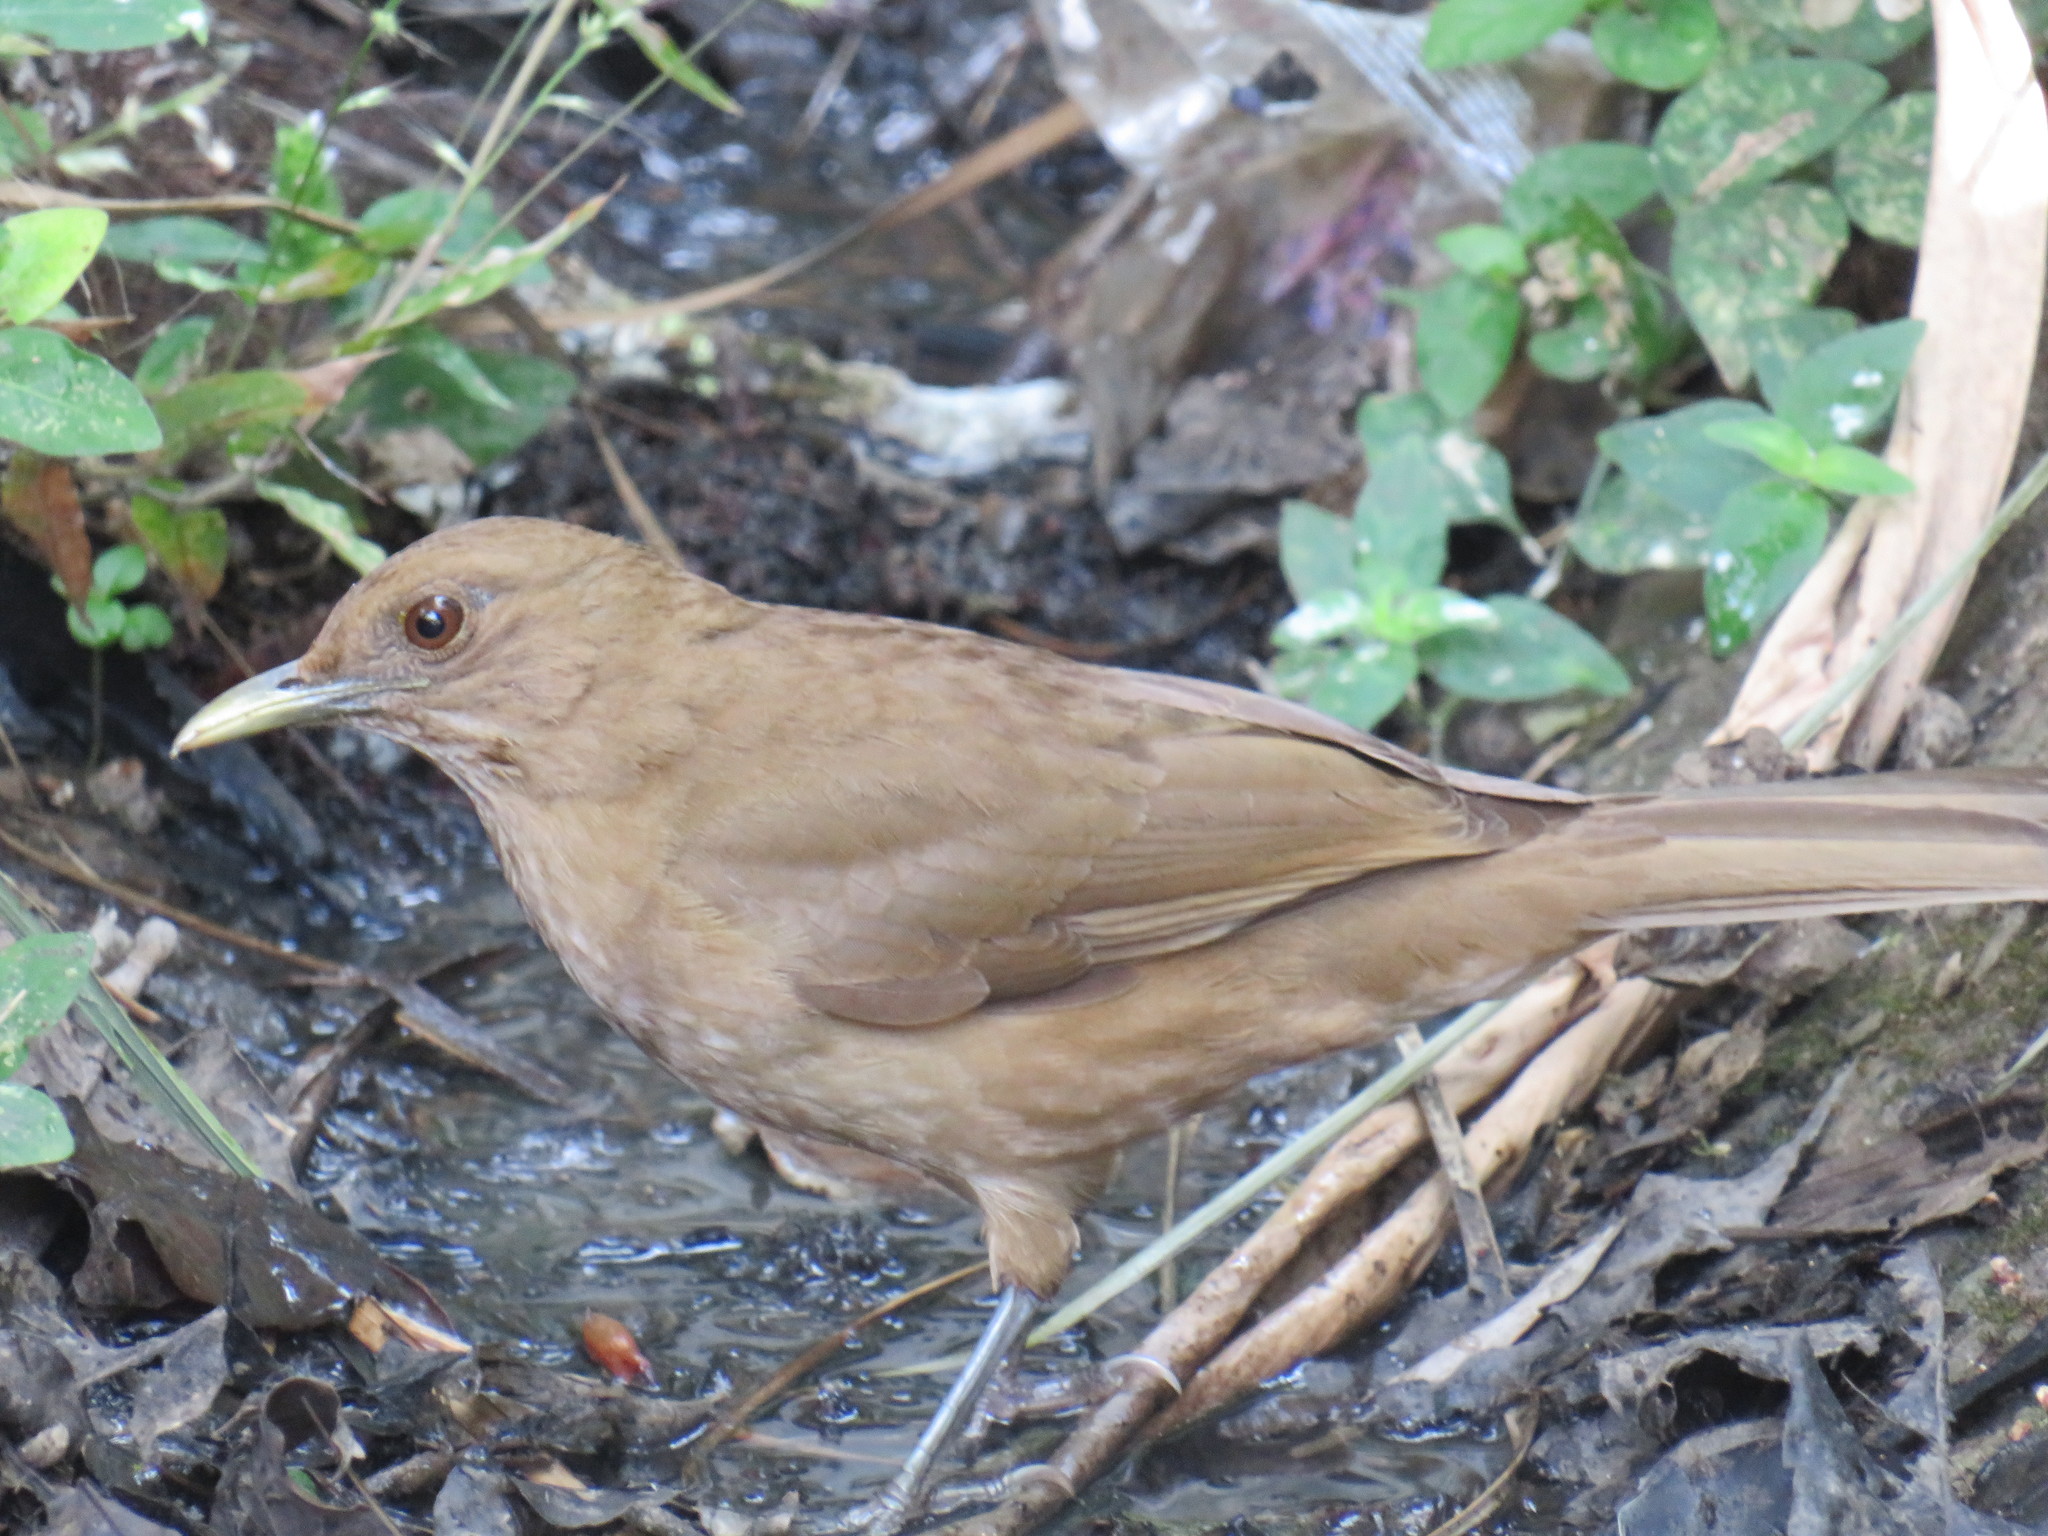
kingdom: Animalia
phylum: Chordata
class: Aves
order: Passeriformes
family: Turdidae
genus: Turdus
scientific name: Turdus grayi
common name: Clay-colored thrush
